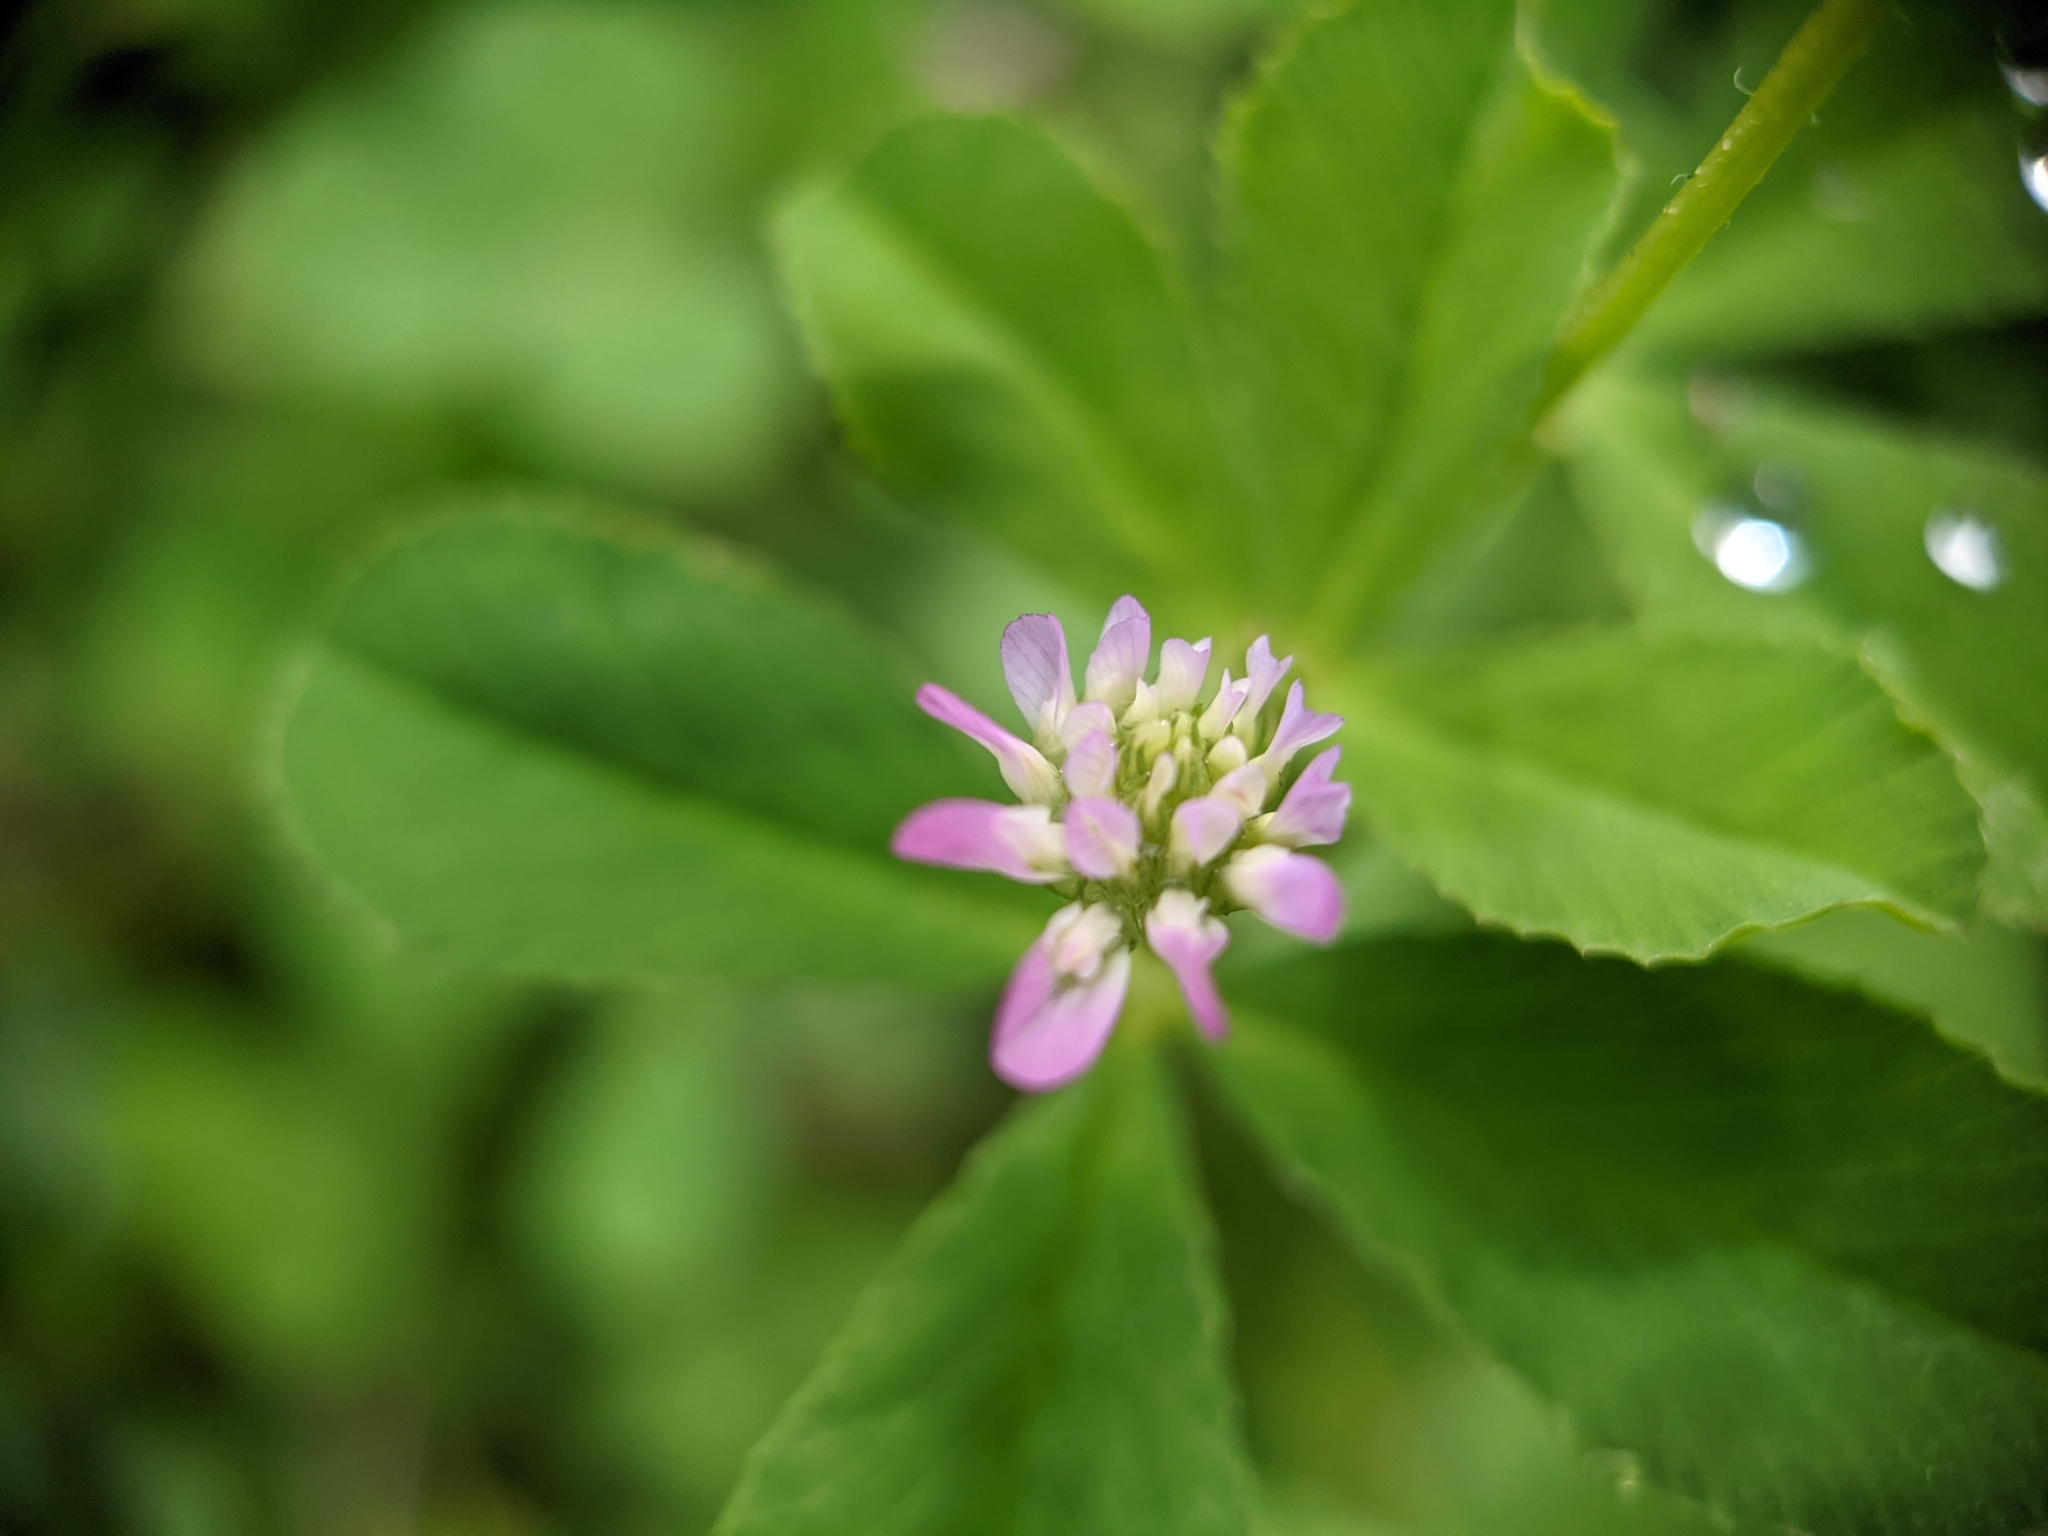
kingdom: Plantae
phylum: Tracheophyta
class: Magnoliopsida
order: Fabales
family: Fabaceae
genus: Trifolium
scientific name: Trifolium resupinatum
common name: Reversed clover
